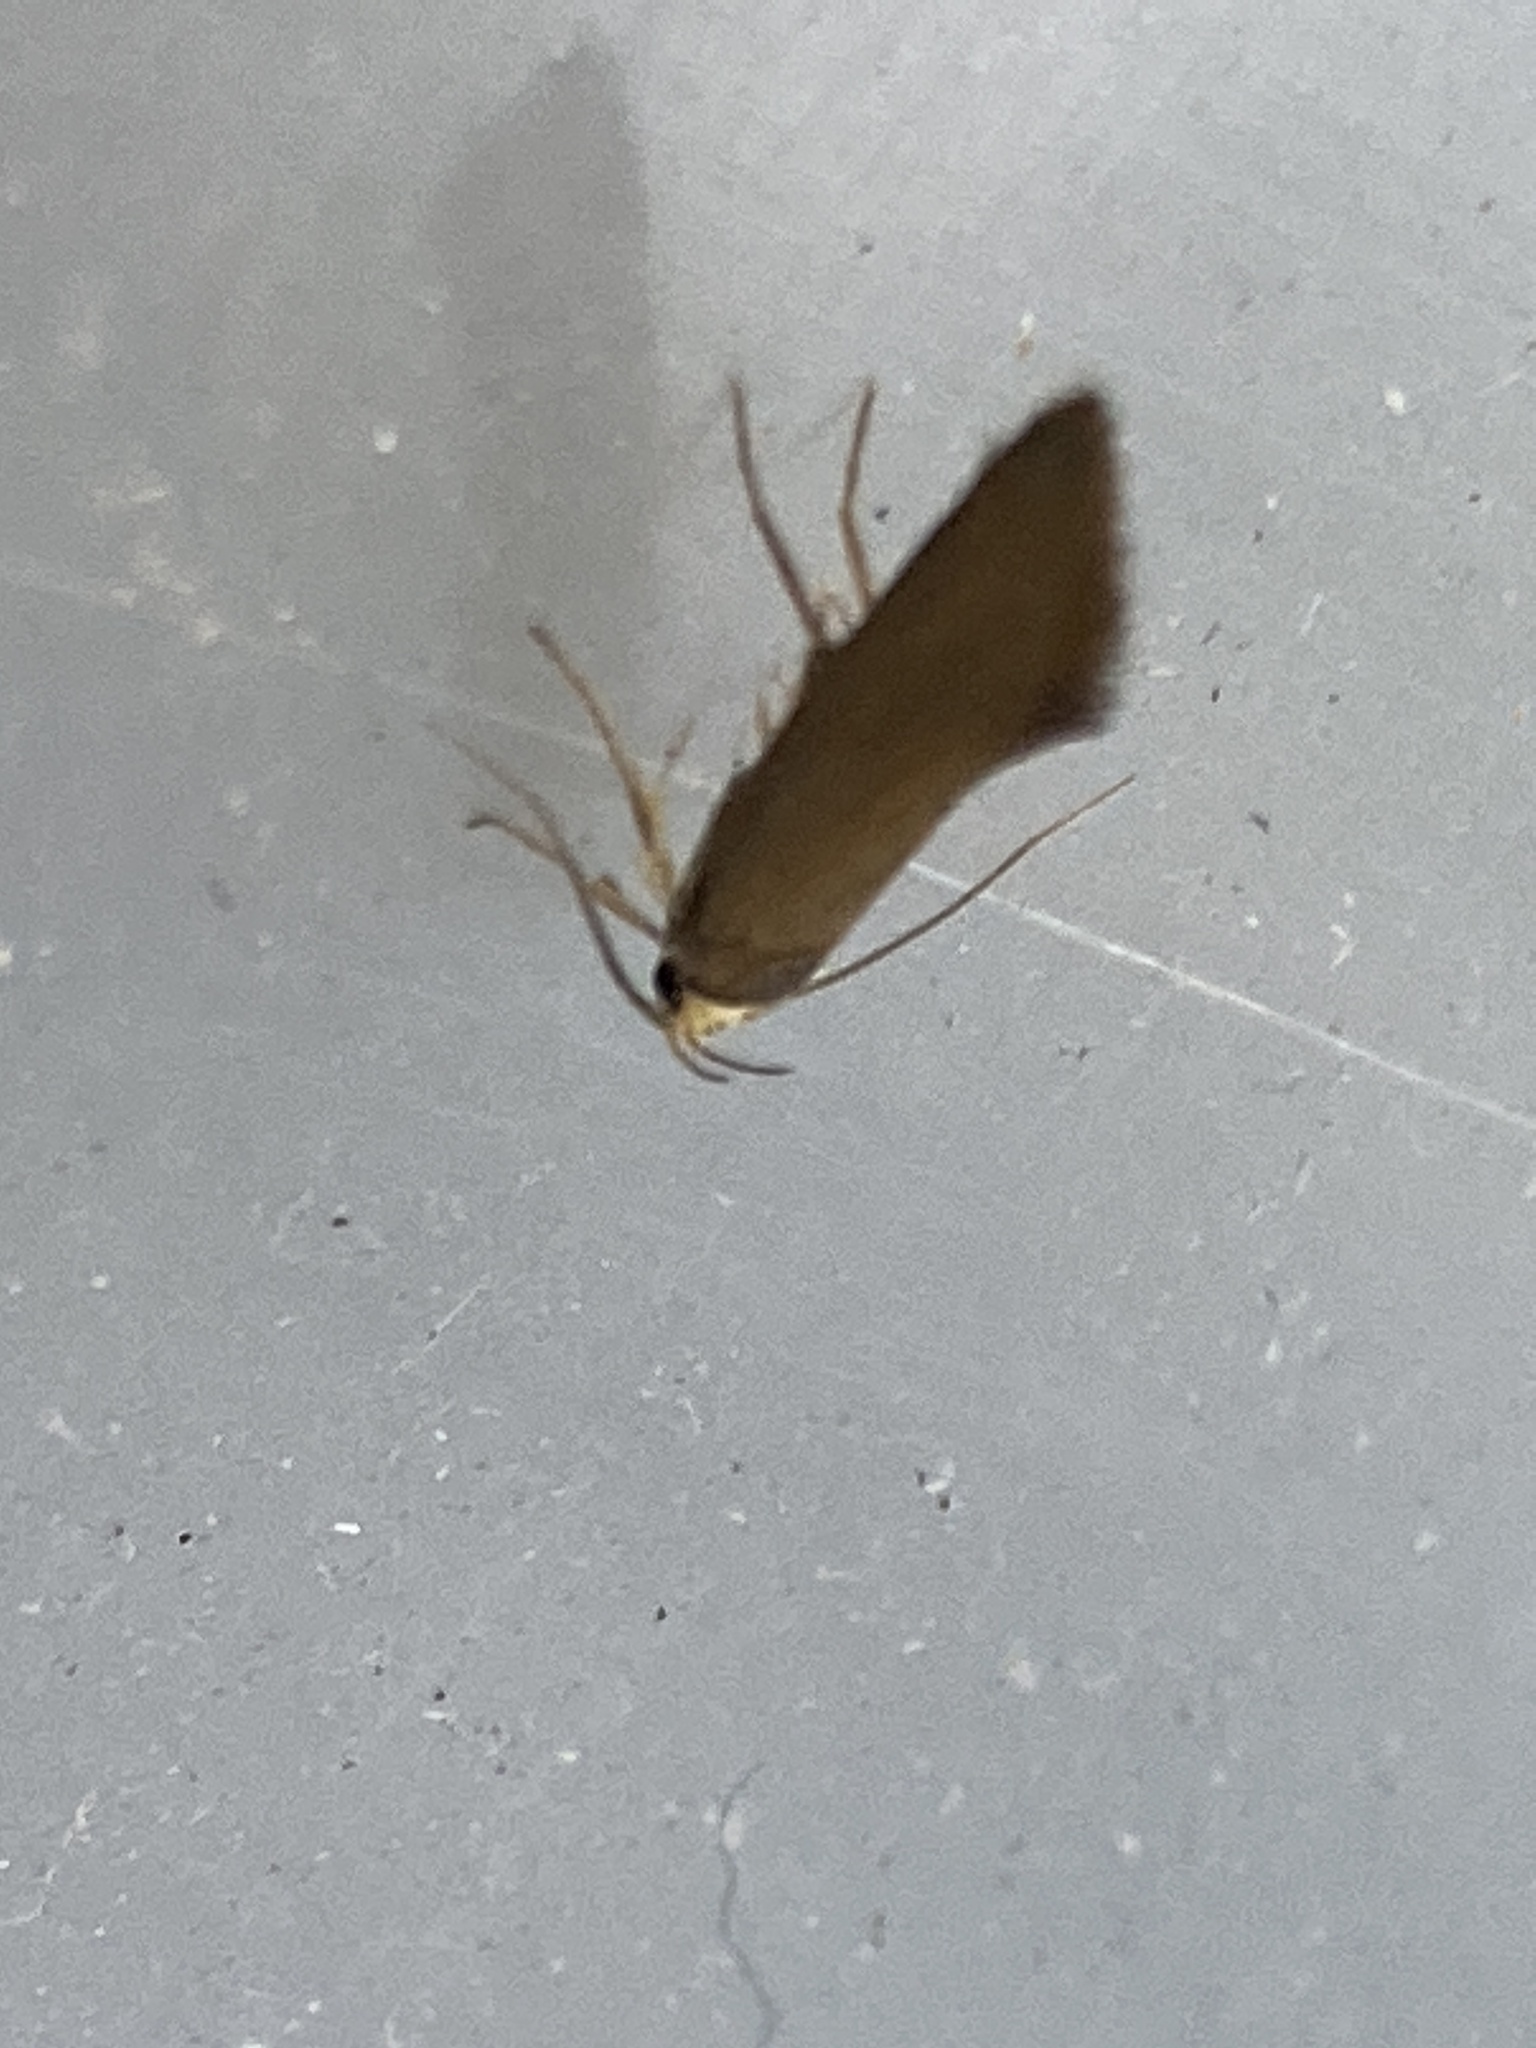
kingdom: Animalia
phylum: Arthropoda
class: Insecta
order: Lepidoptera
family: Oecophoridae
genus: Borkhausenia
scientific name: Borkhausenia Crassa unitella
